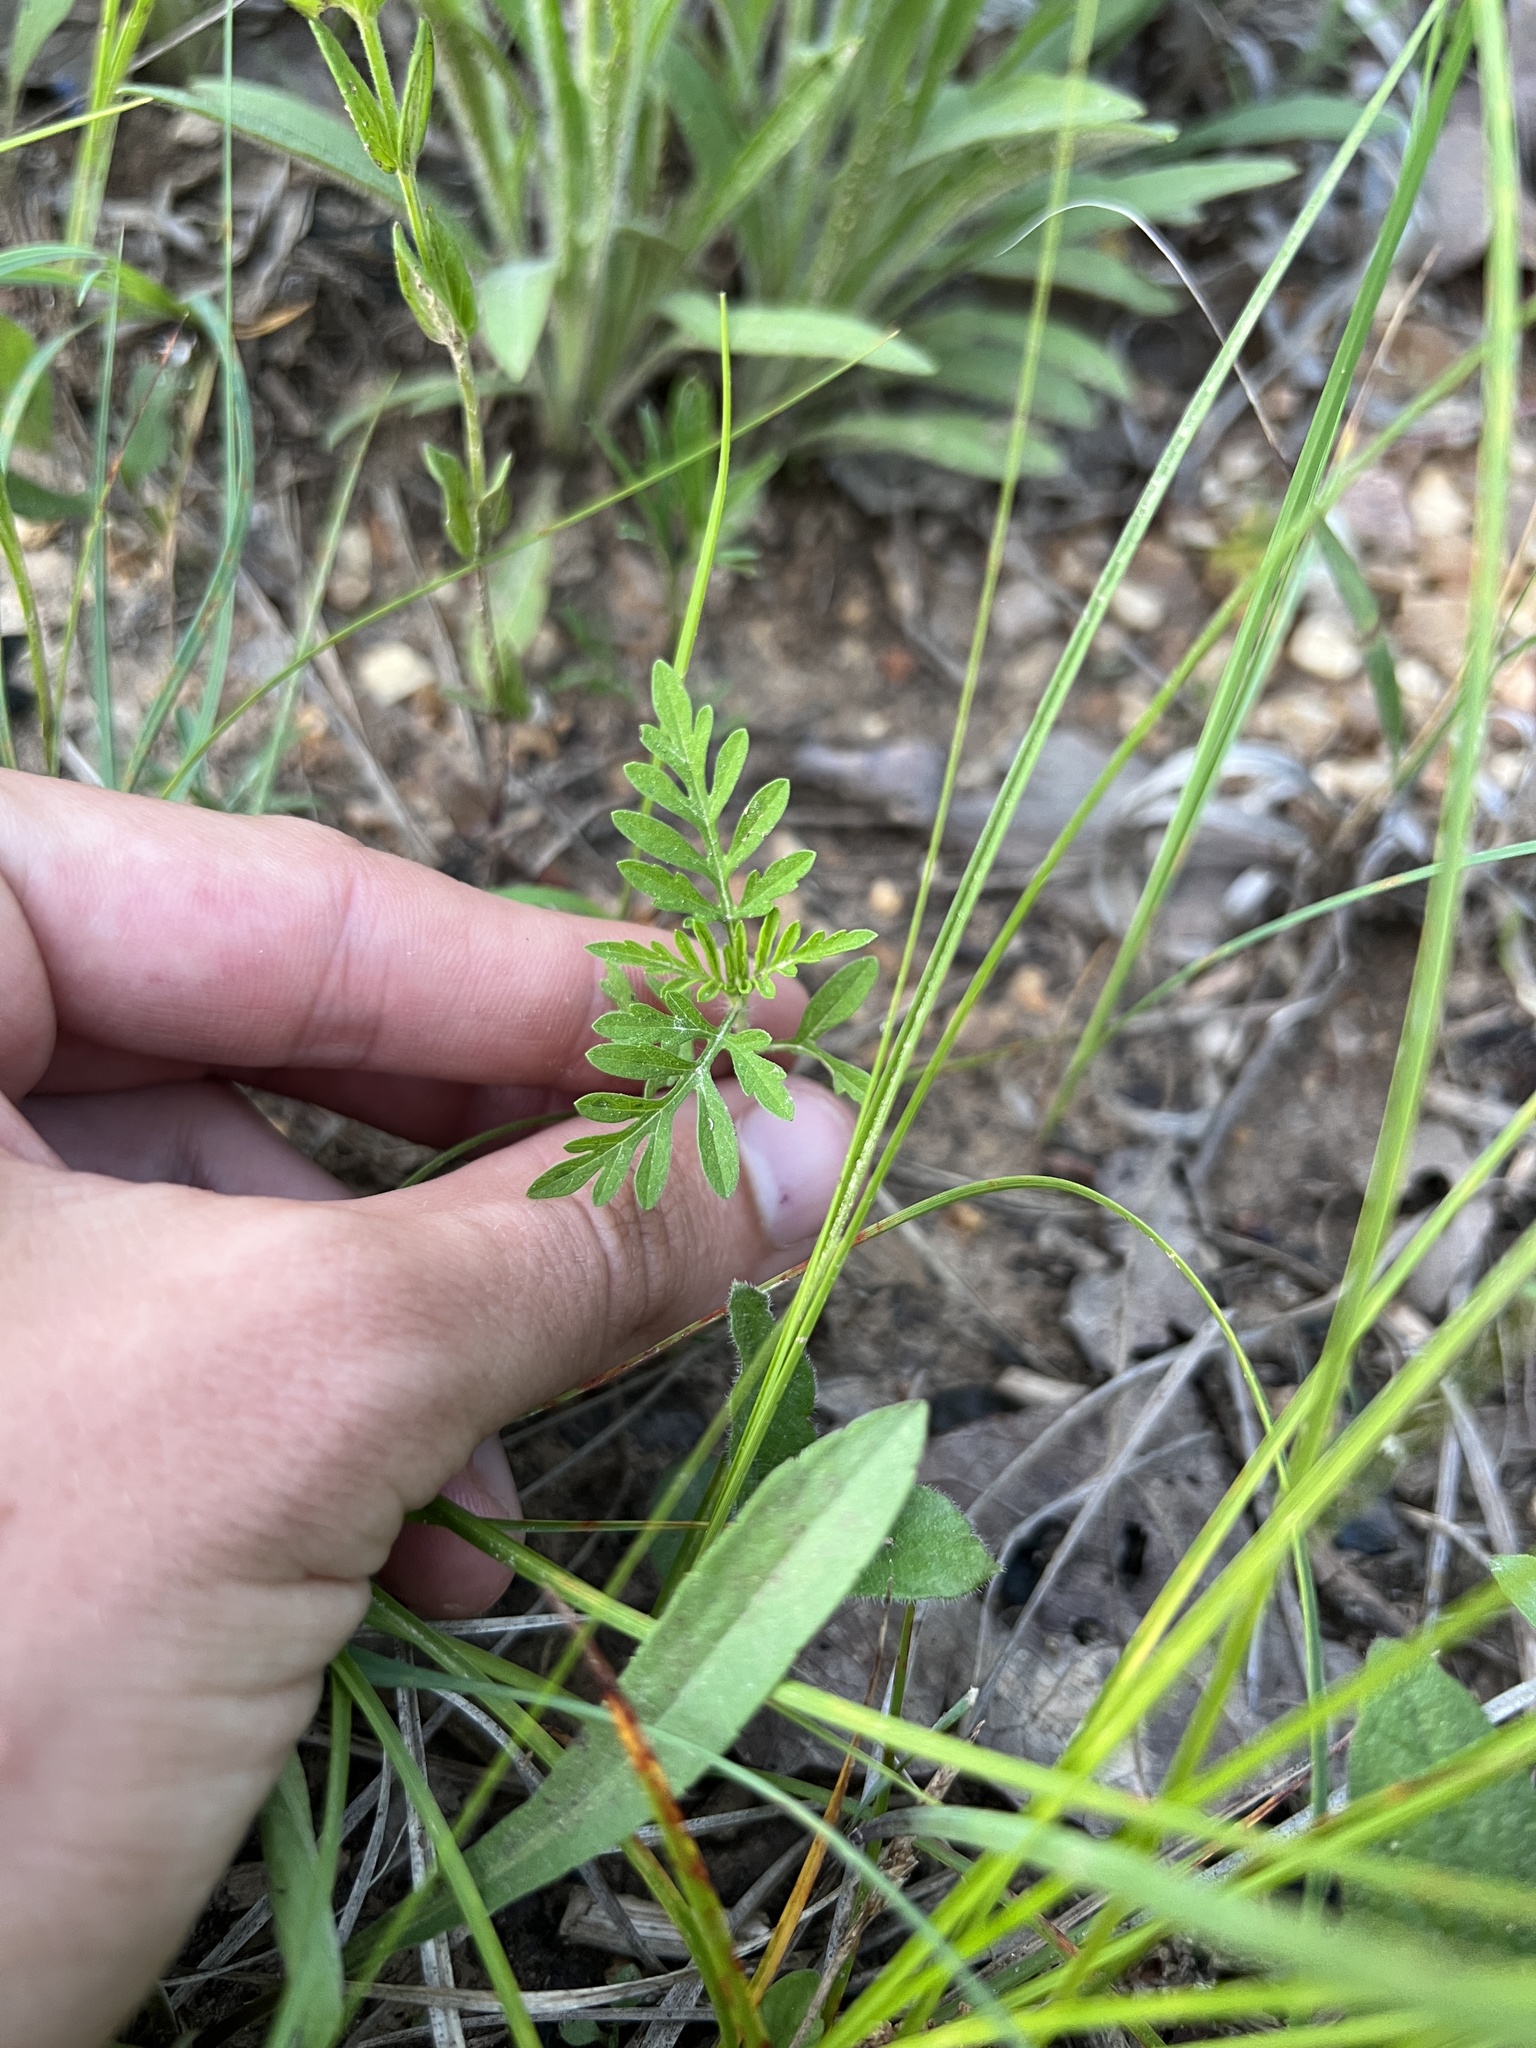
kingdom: Plantae
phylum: Tracheophyta
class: Magnoliopsida
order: Asterales
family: Asteraceae
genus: Ambrosia
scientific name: Ambrosia artemisiifolia
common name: Annual ragweed
